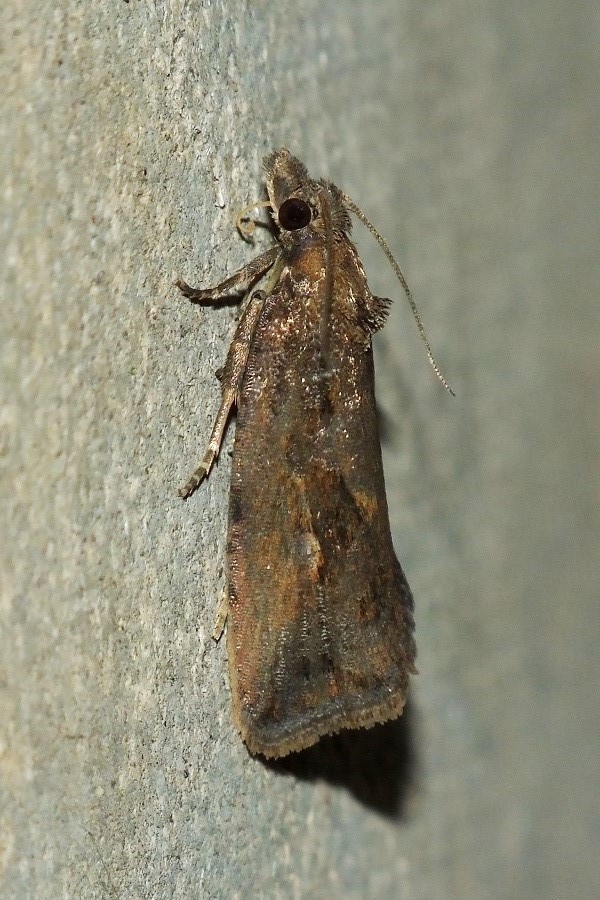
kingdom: Animalia
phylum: Arthropoda
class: Insecta
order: Lepidoptera
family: Tortricidae
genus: Endothenia
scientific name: Endothenia quadrimaculana
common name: Tortricid moth
